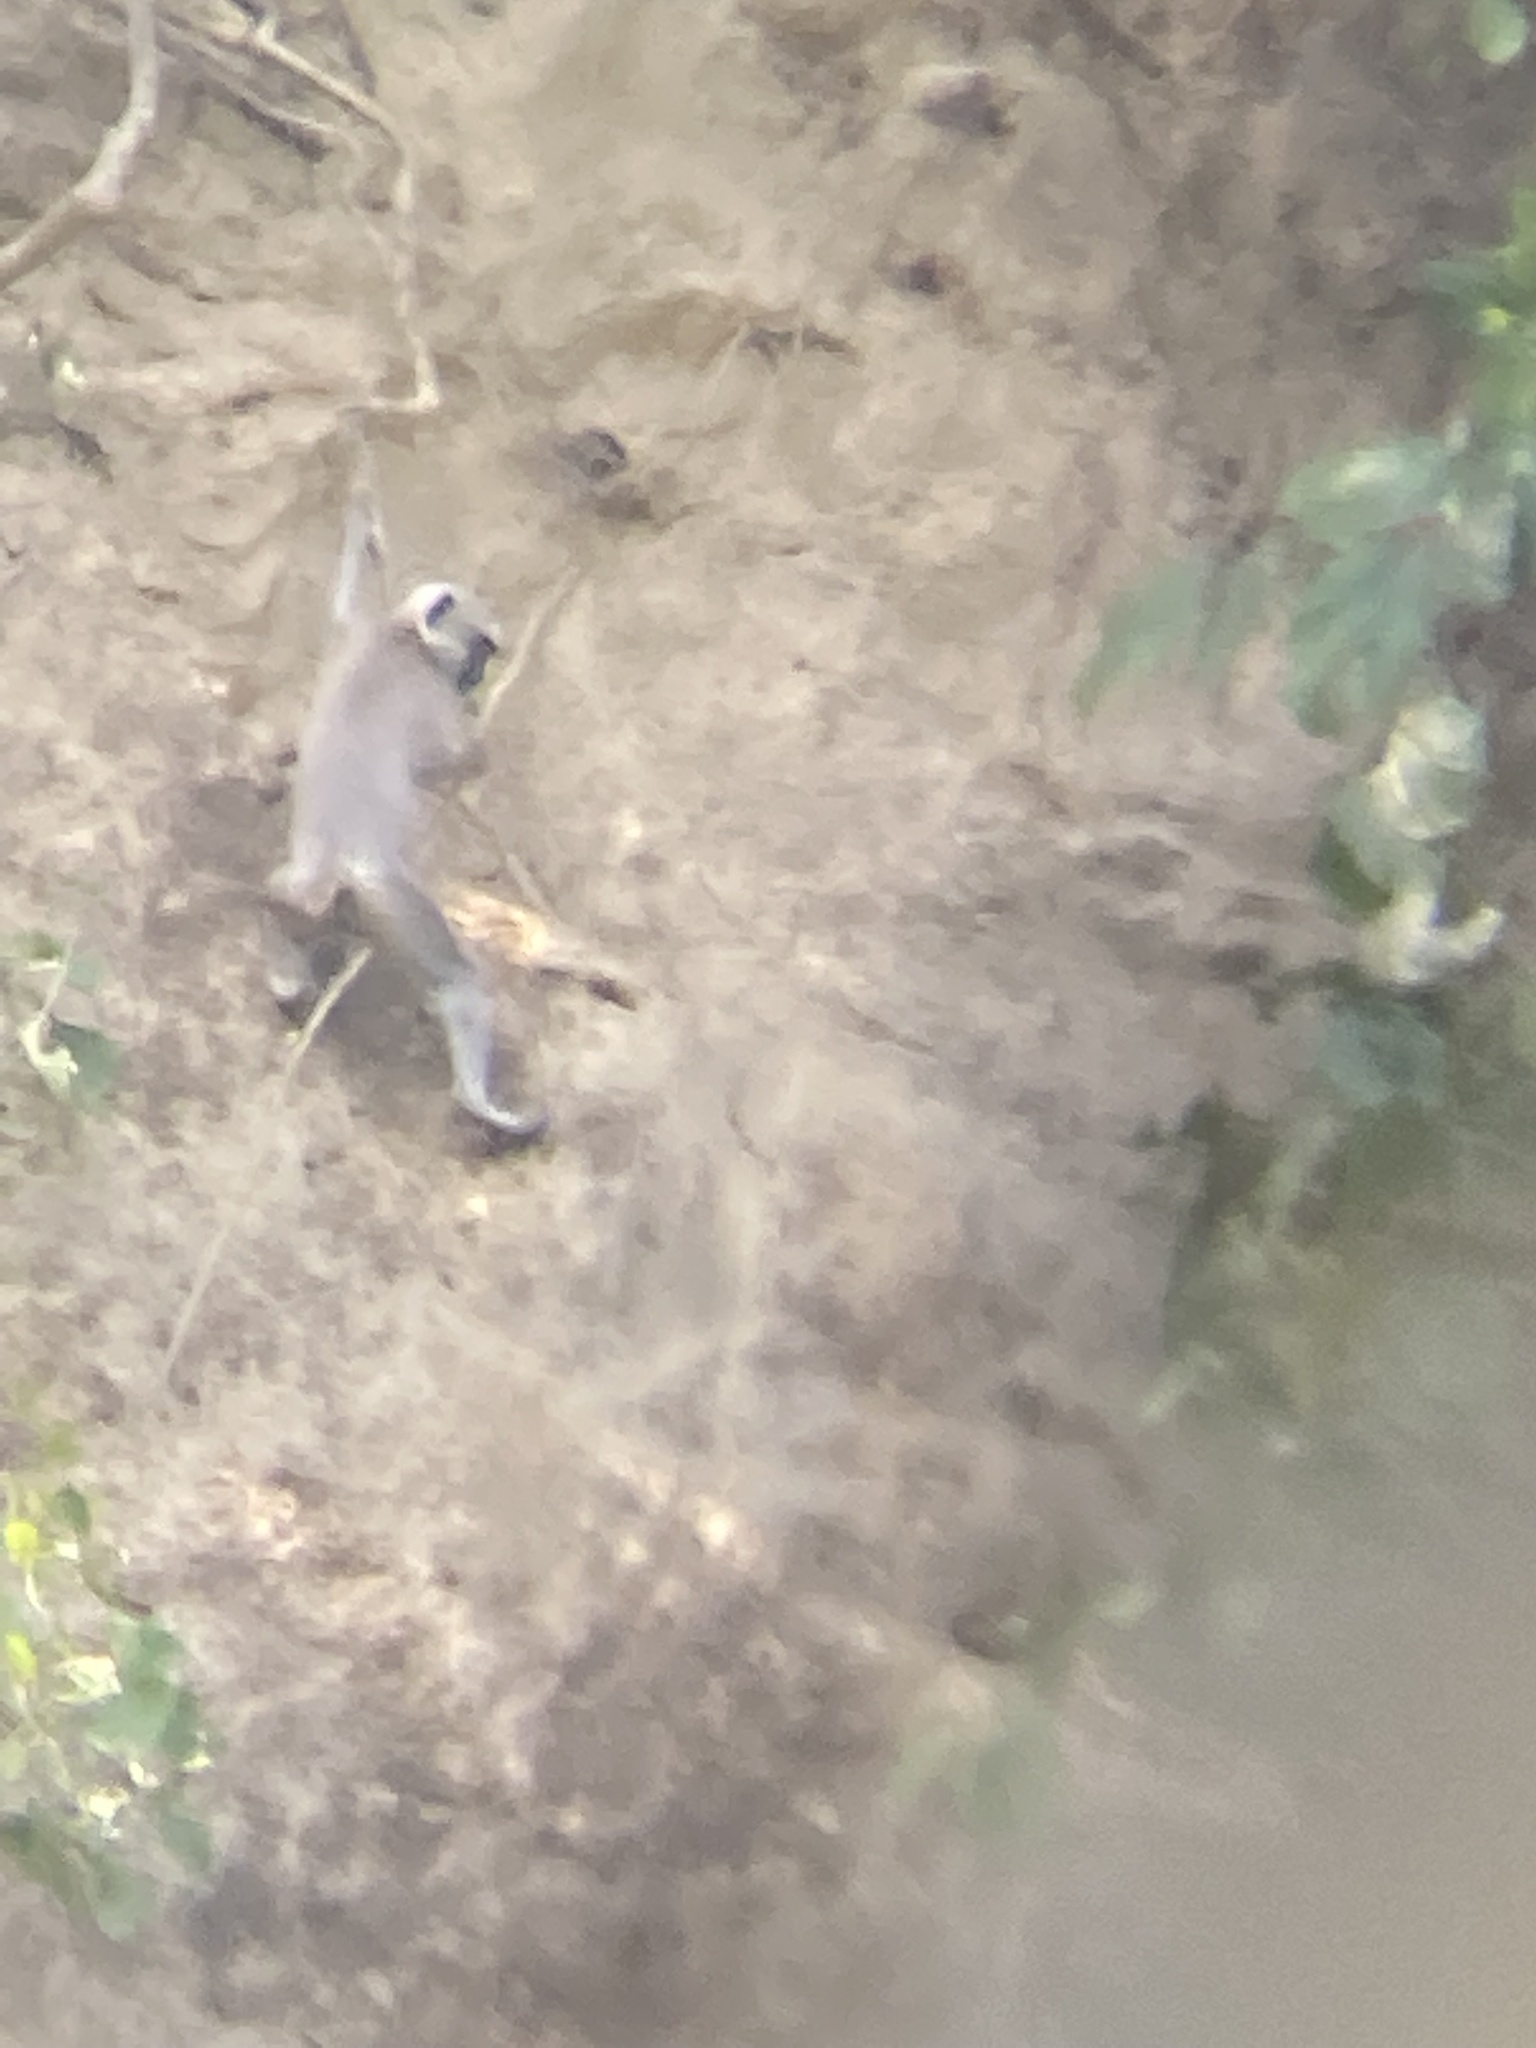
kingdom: Animalia
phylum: Chordata
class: Mammalia
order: Primates
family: Cercopithecidae
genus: Semnopithecus
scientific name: Semnopithecus schistaceus
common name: Nepal gray langur
